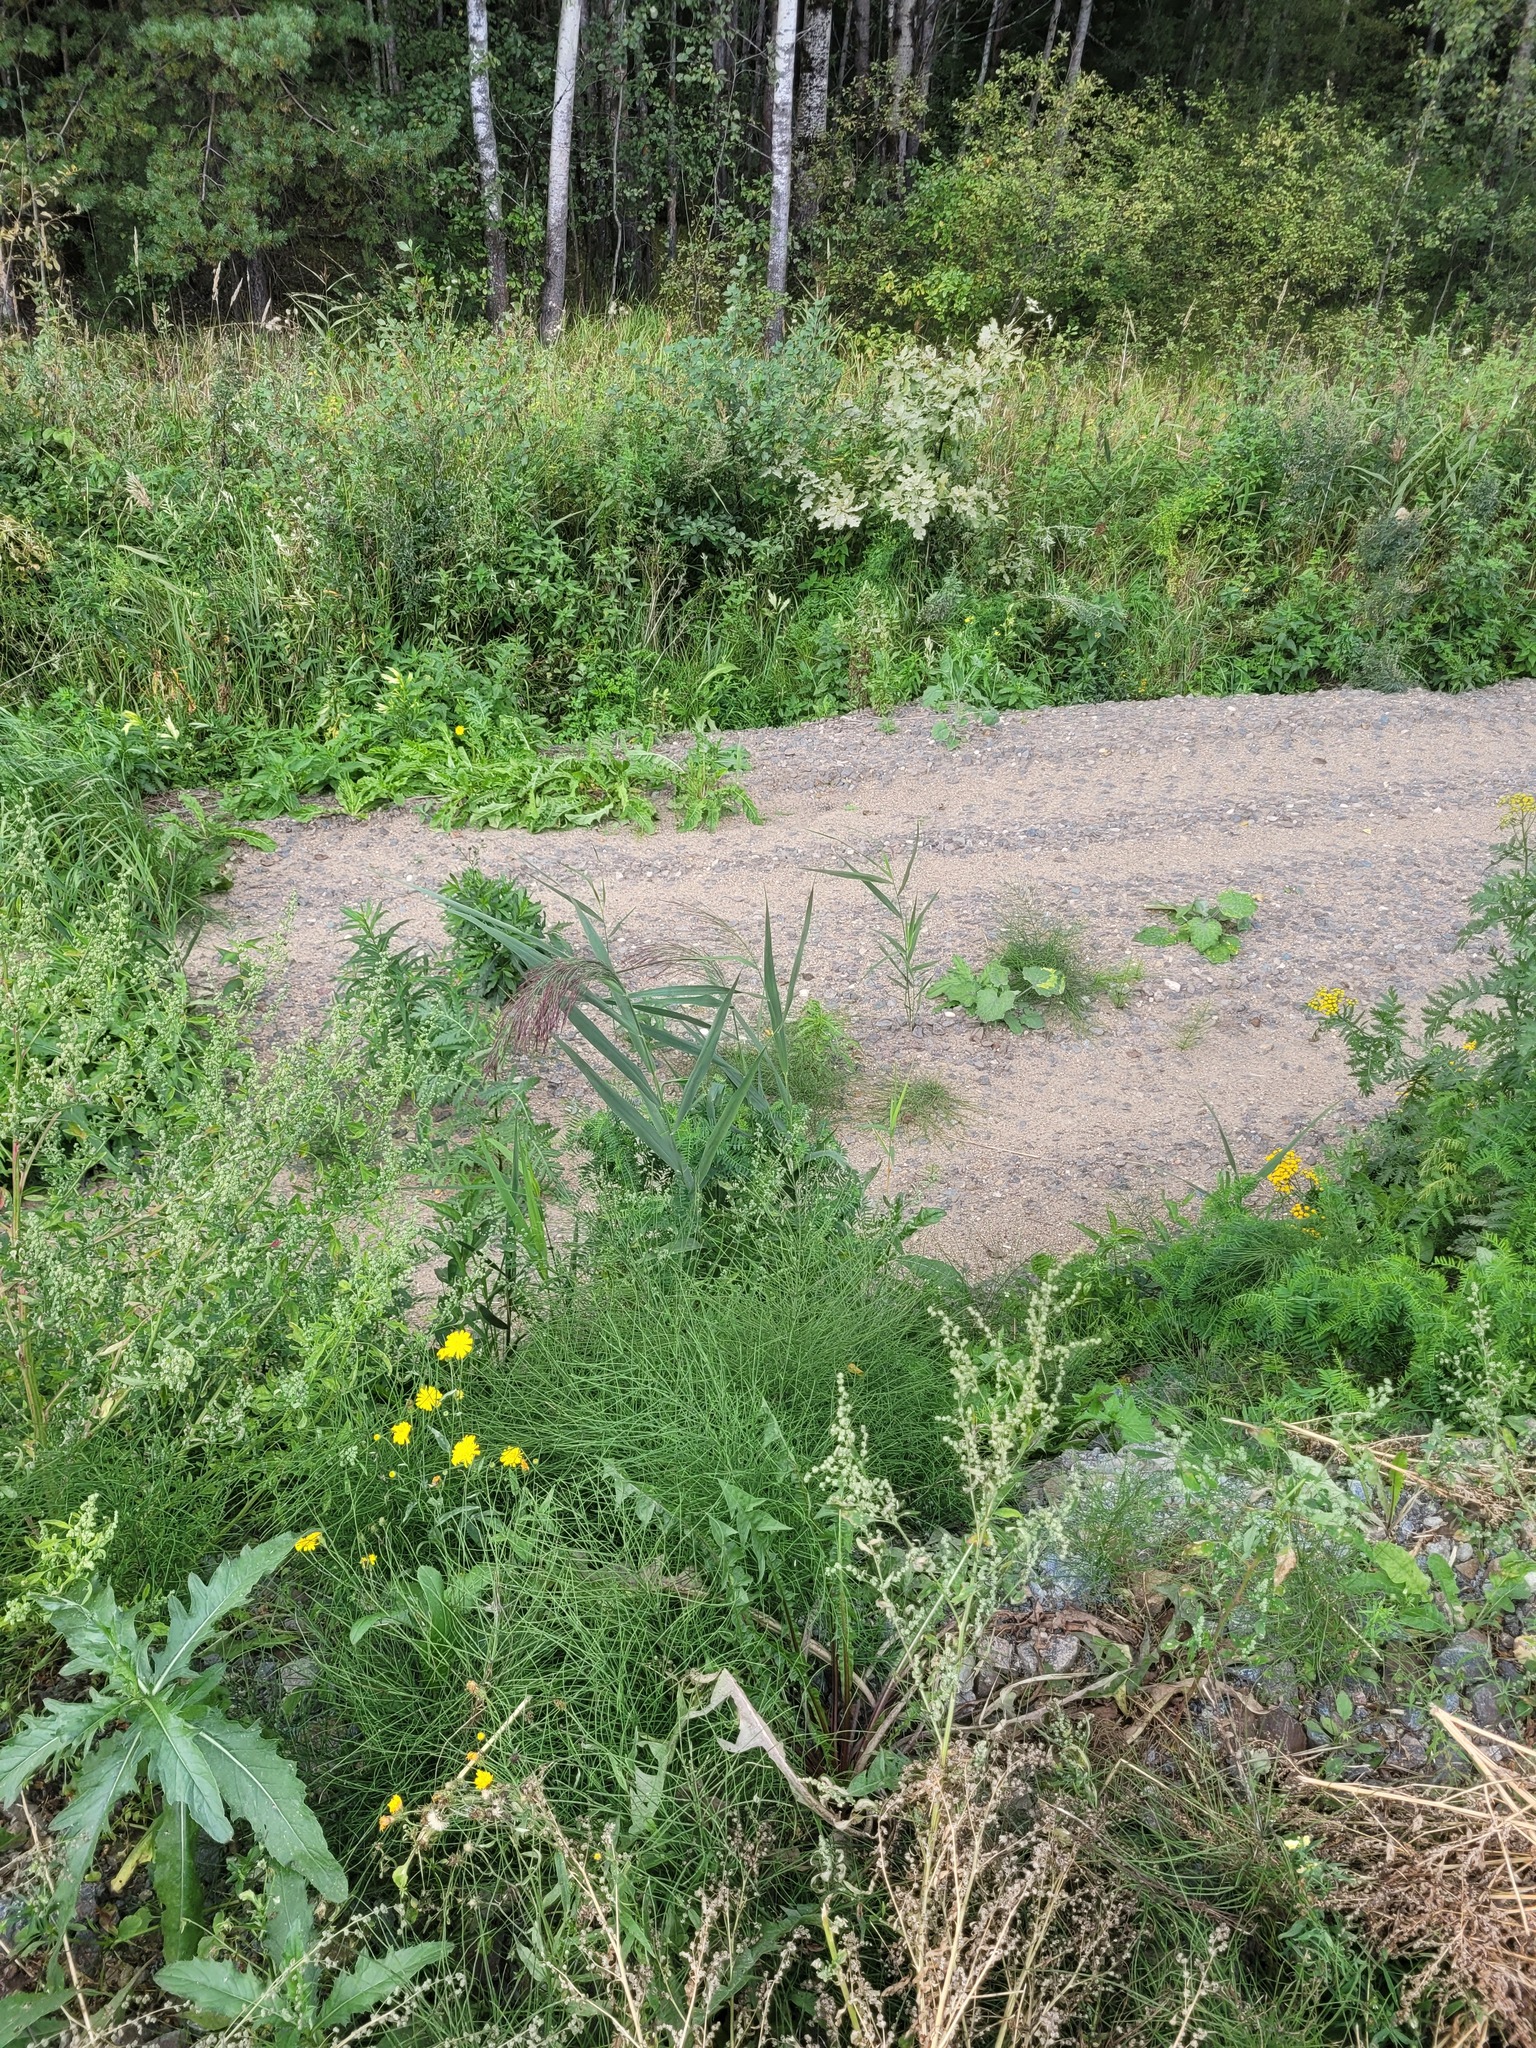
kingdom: Plantae
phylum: Tracheophyta
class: Liliopsida
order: Poales
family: Poaceae
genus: Phragmites
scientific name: Phragmites australis
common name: Common reed
